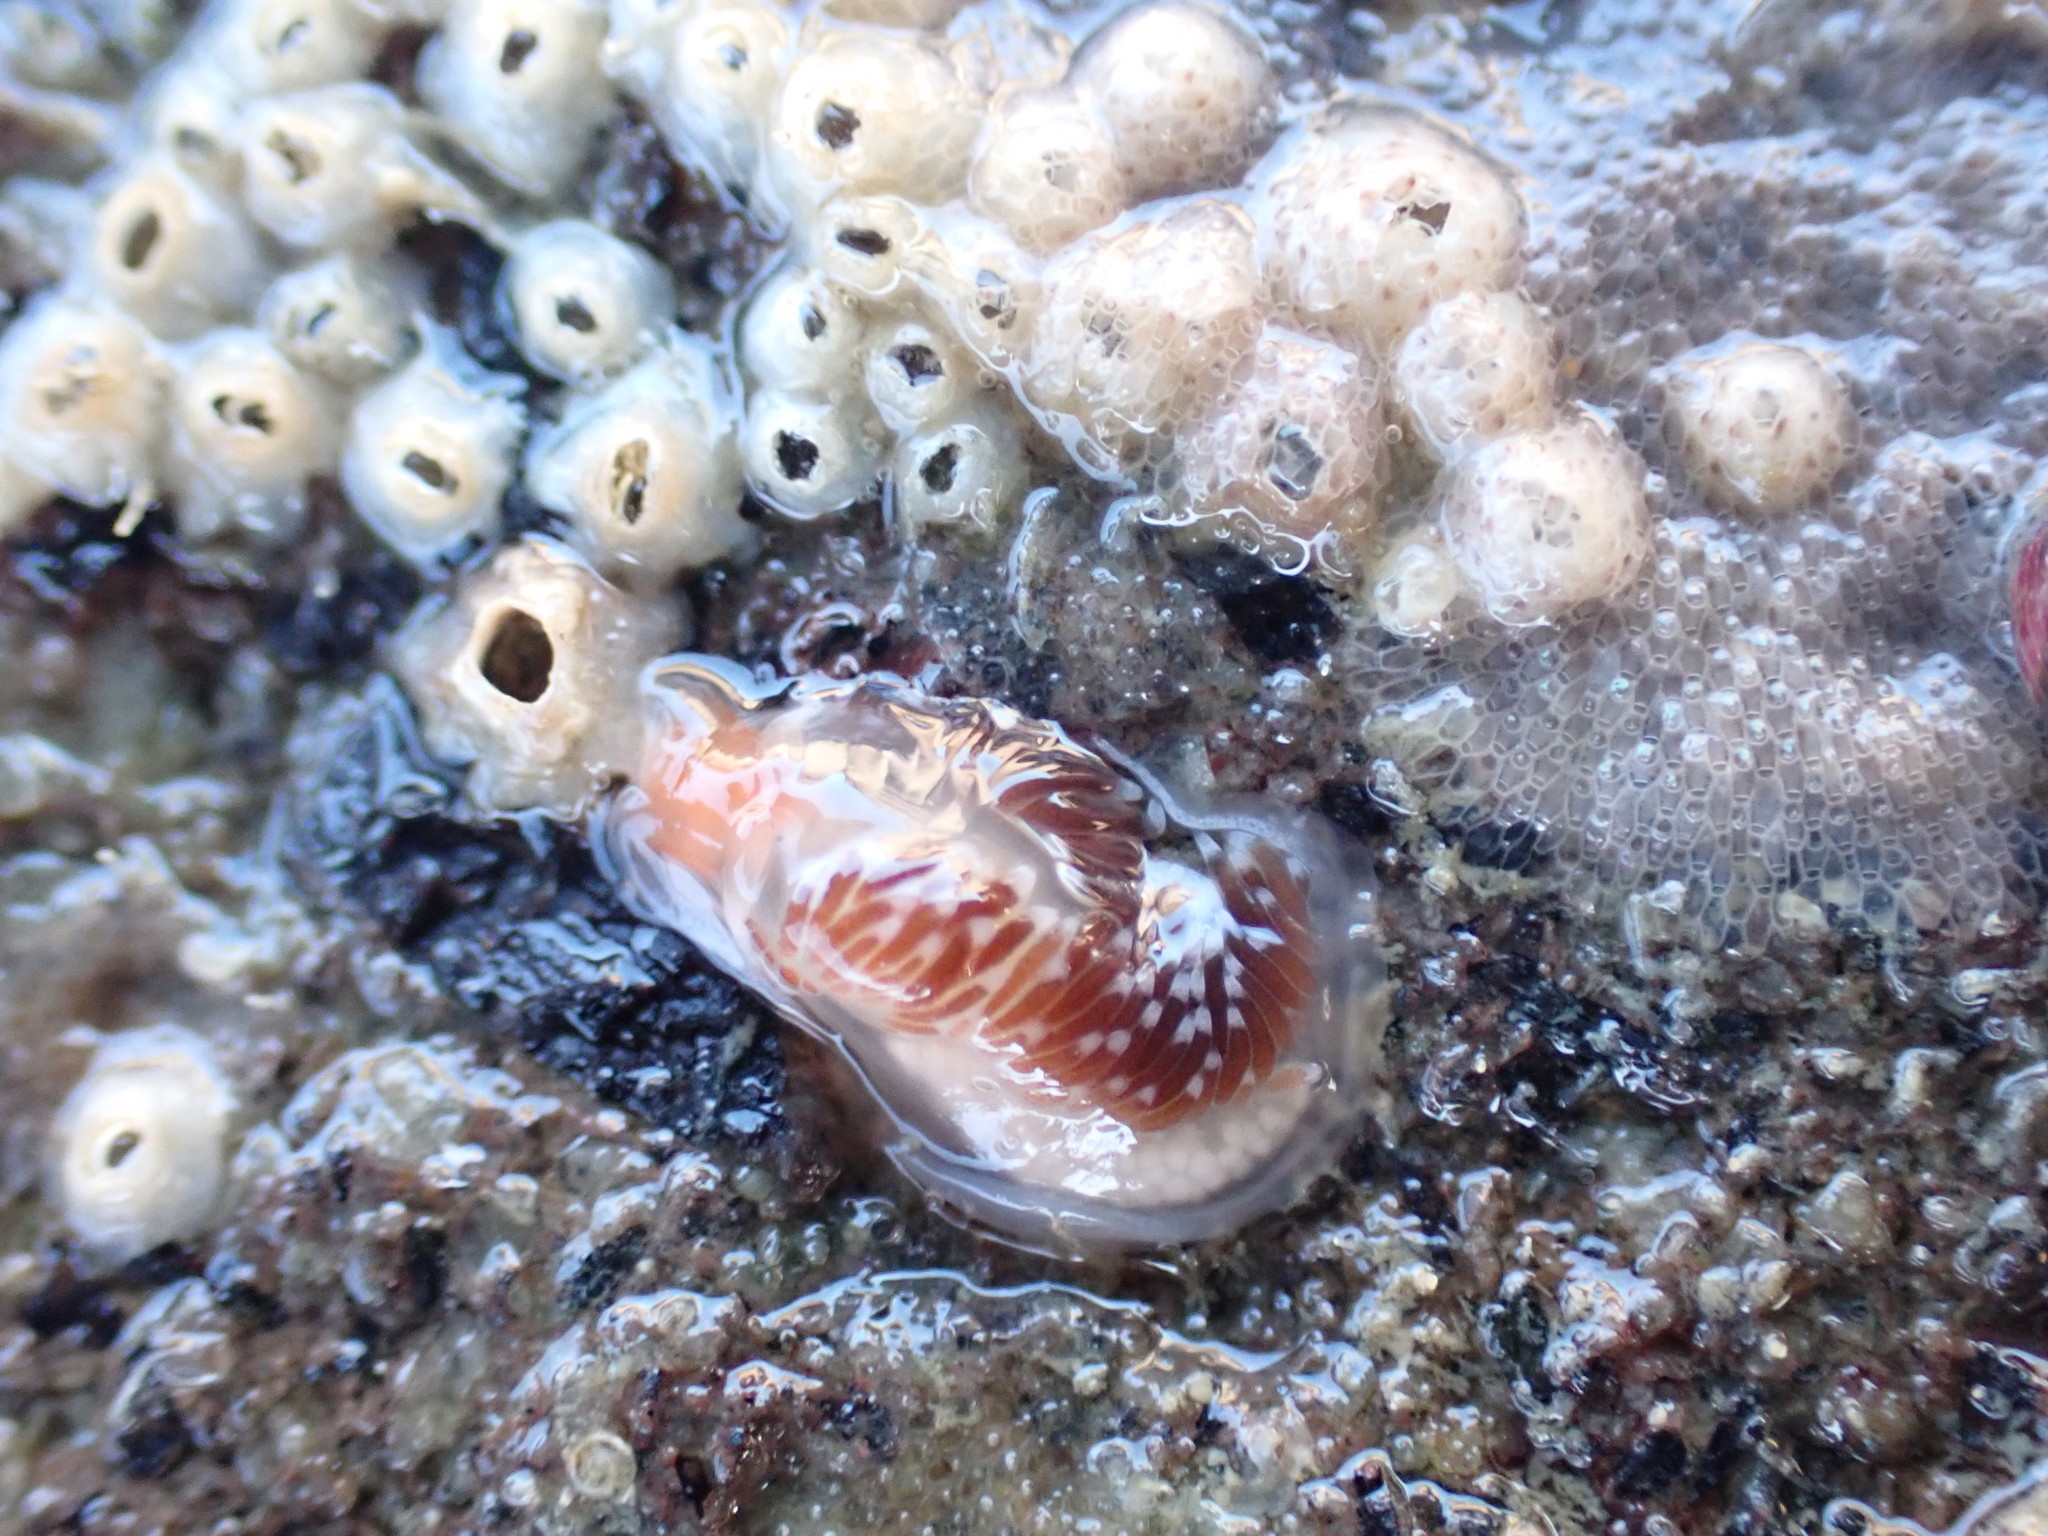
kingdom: Animalia
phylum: Mollusca
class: Gastropoda
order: Nudibranchia
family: Facelinidae
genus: Phidiana
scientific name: Phidiana milleri
